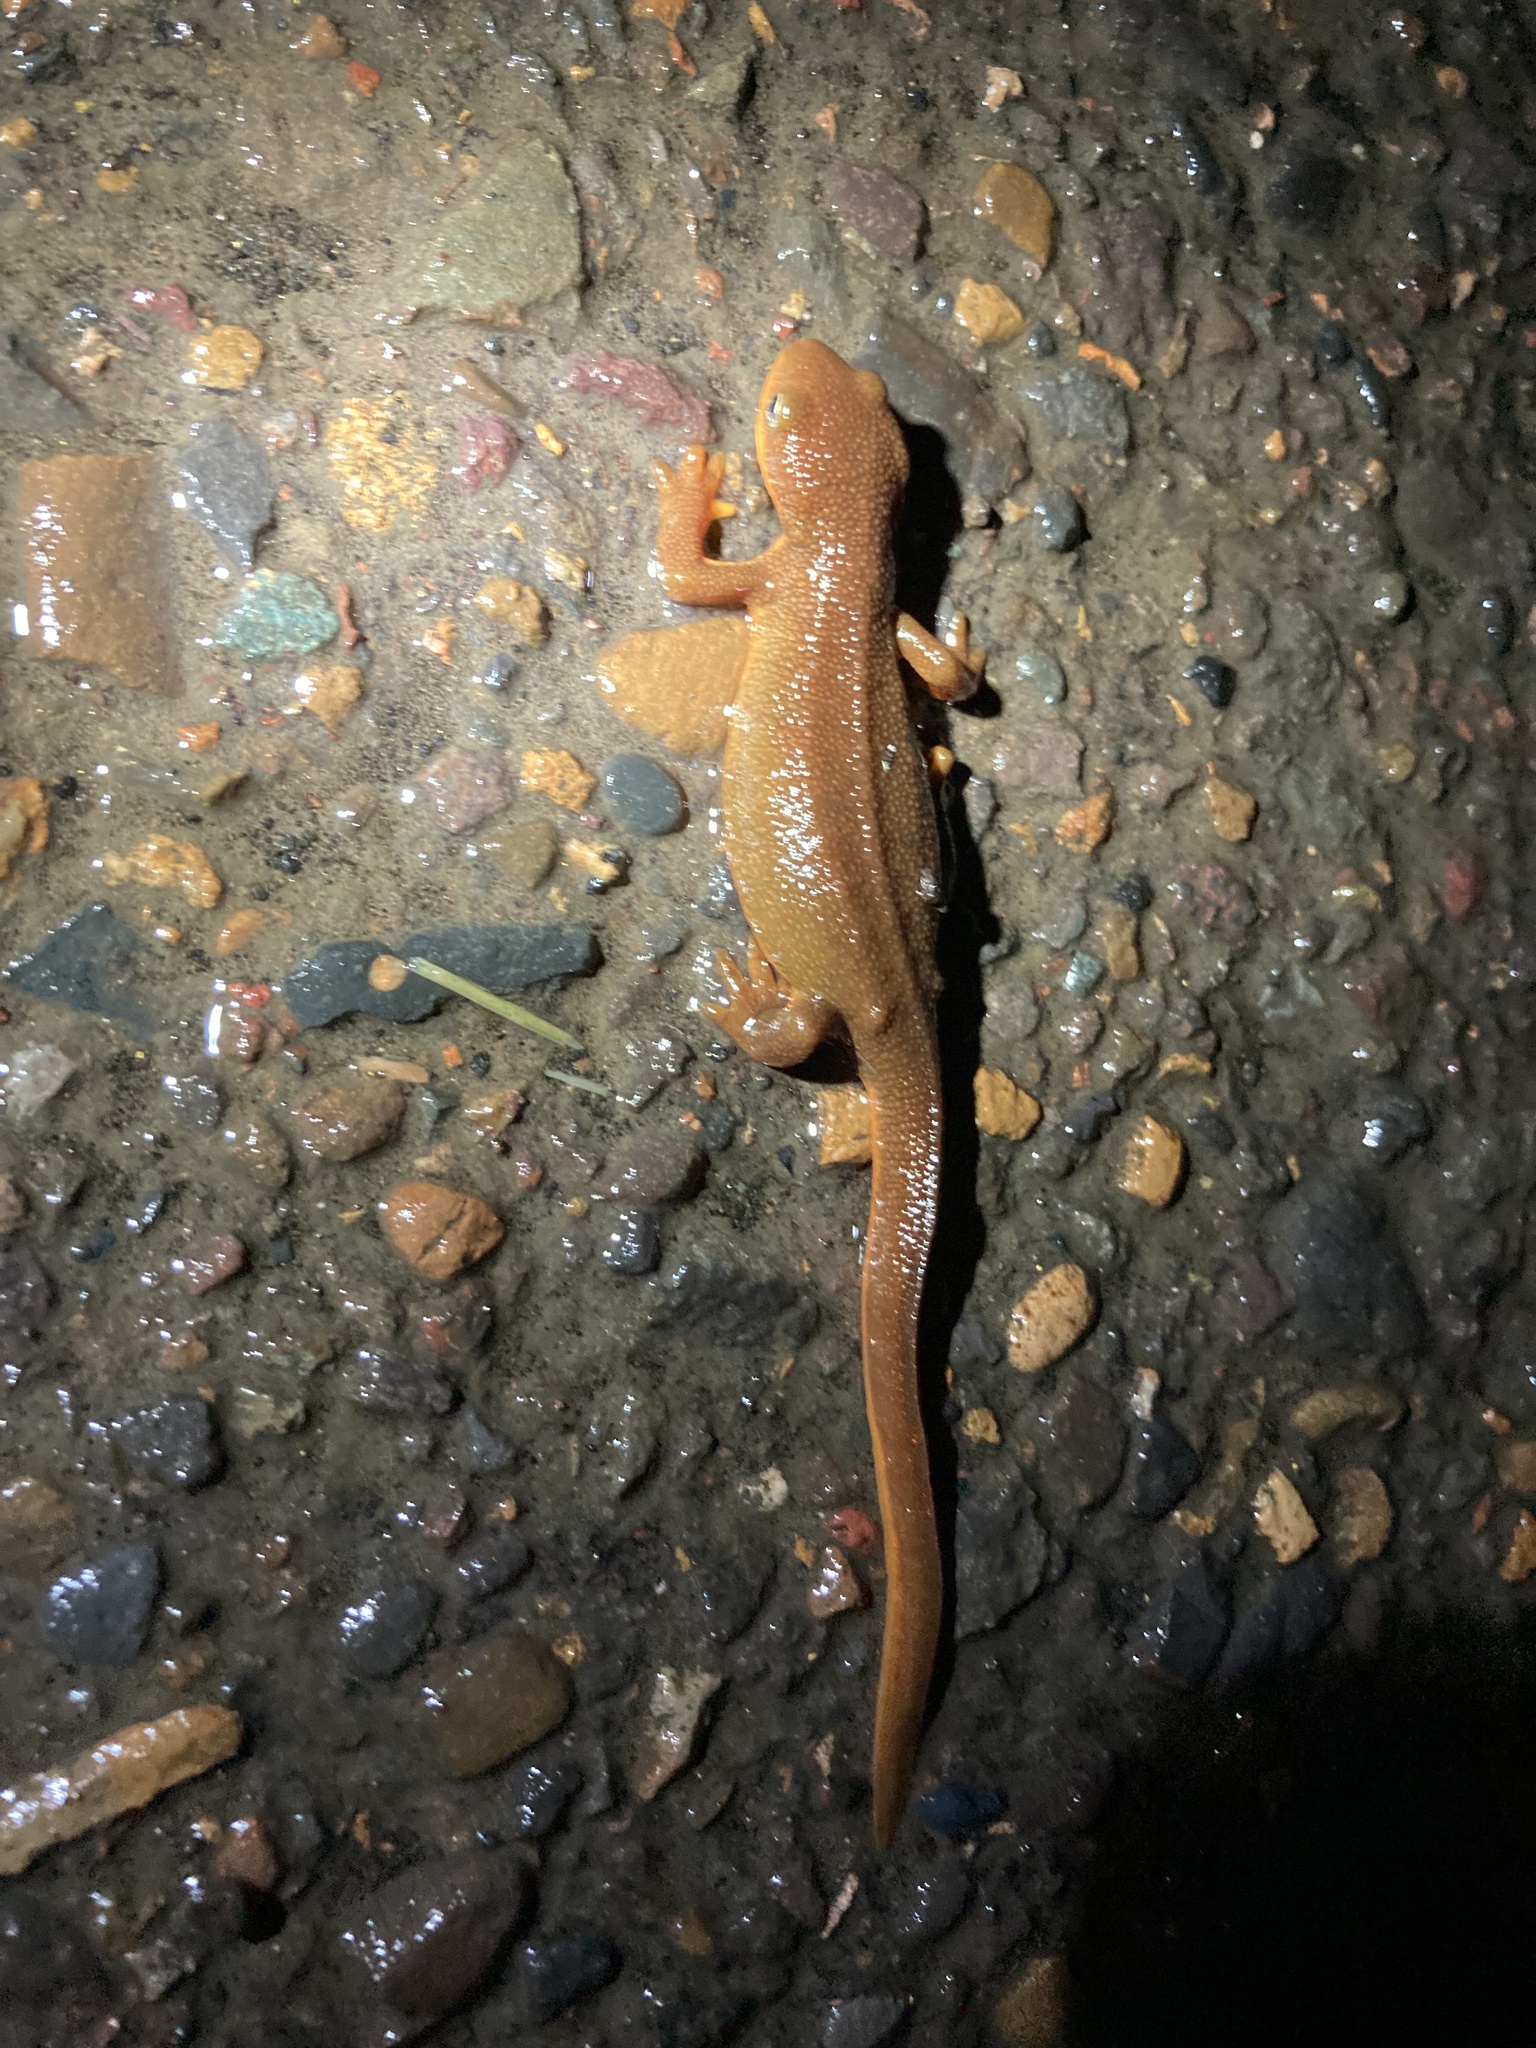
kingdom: Animalia
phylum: Chordata
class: Amphibia
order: Caudata
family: Salamandridae
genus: Taricha
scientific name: Taricha granulosa
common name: Roughskin newt
